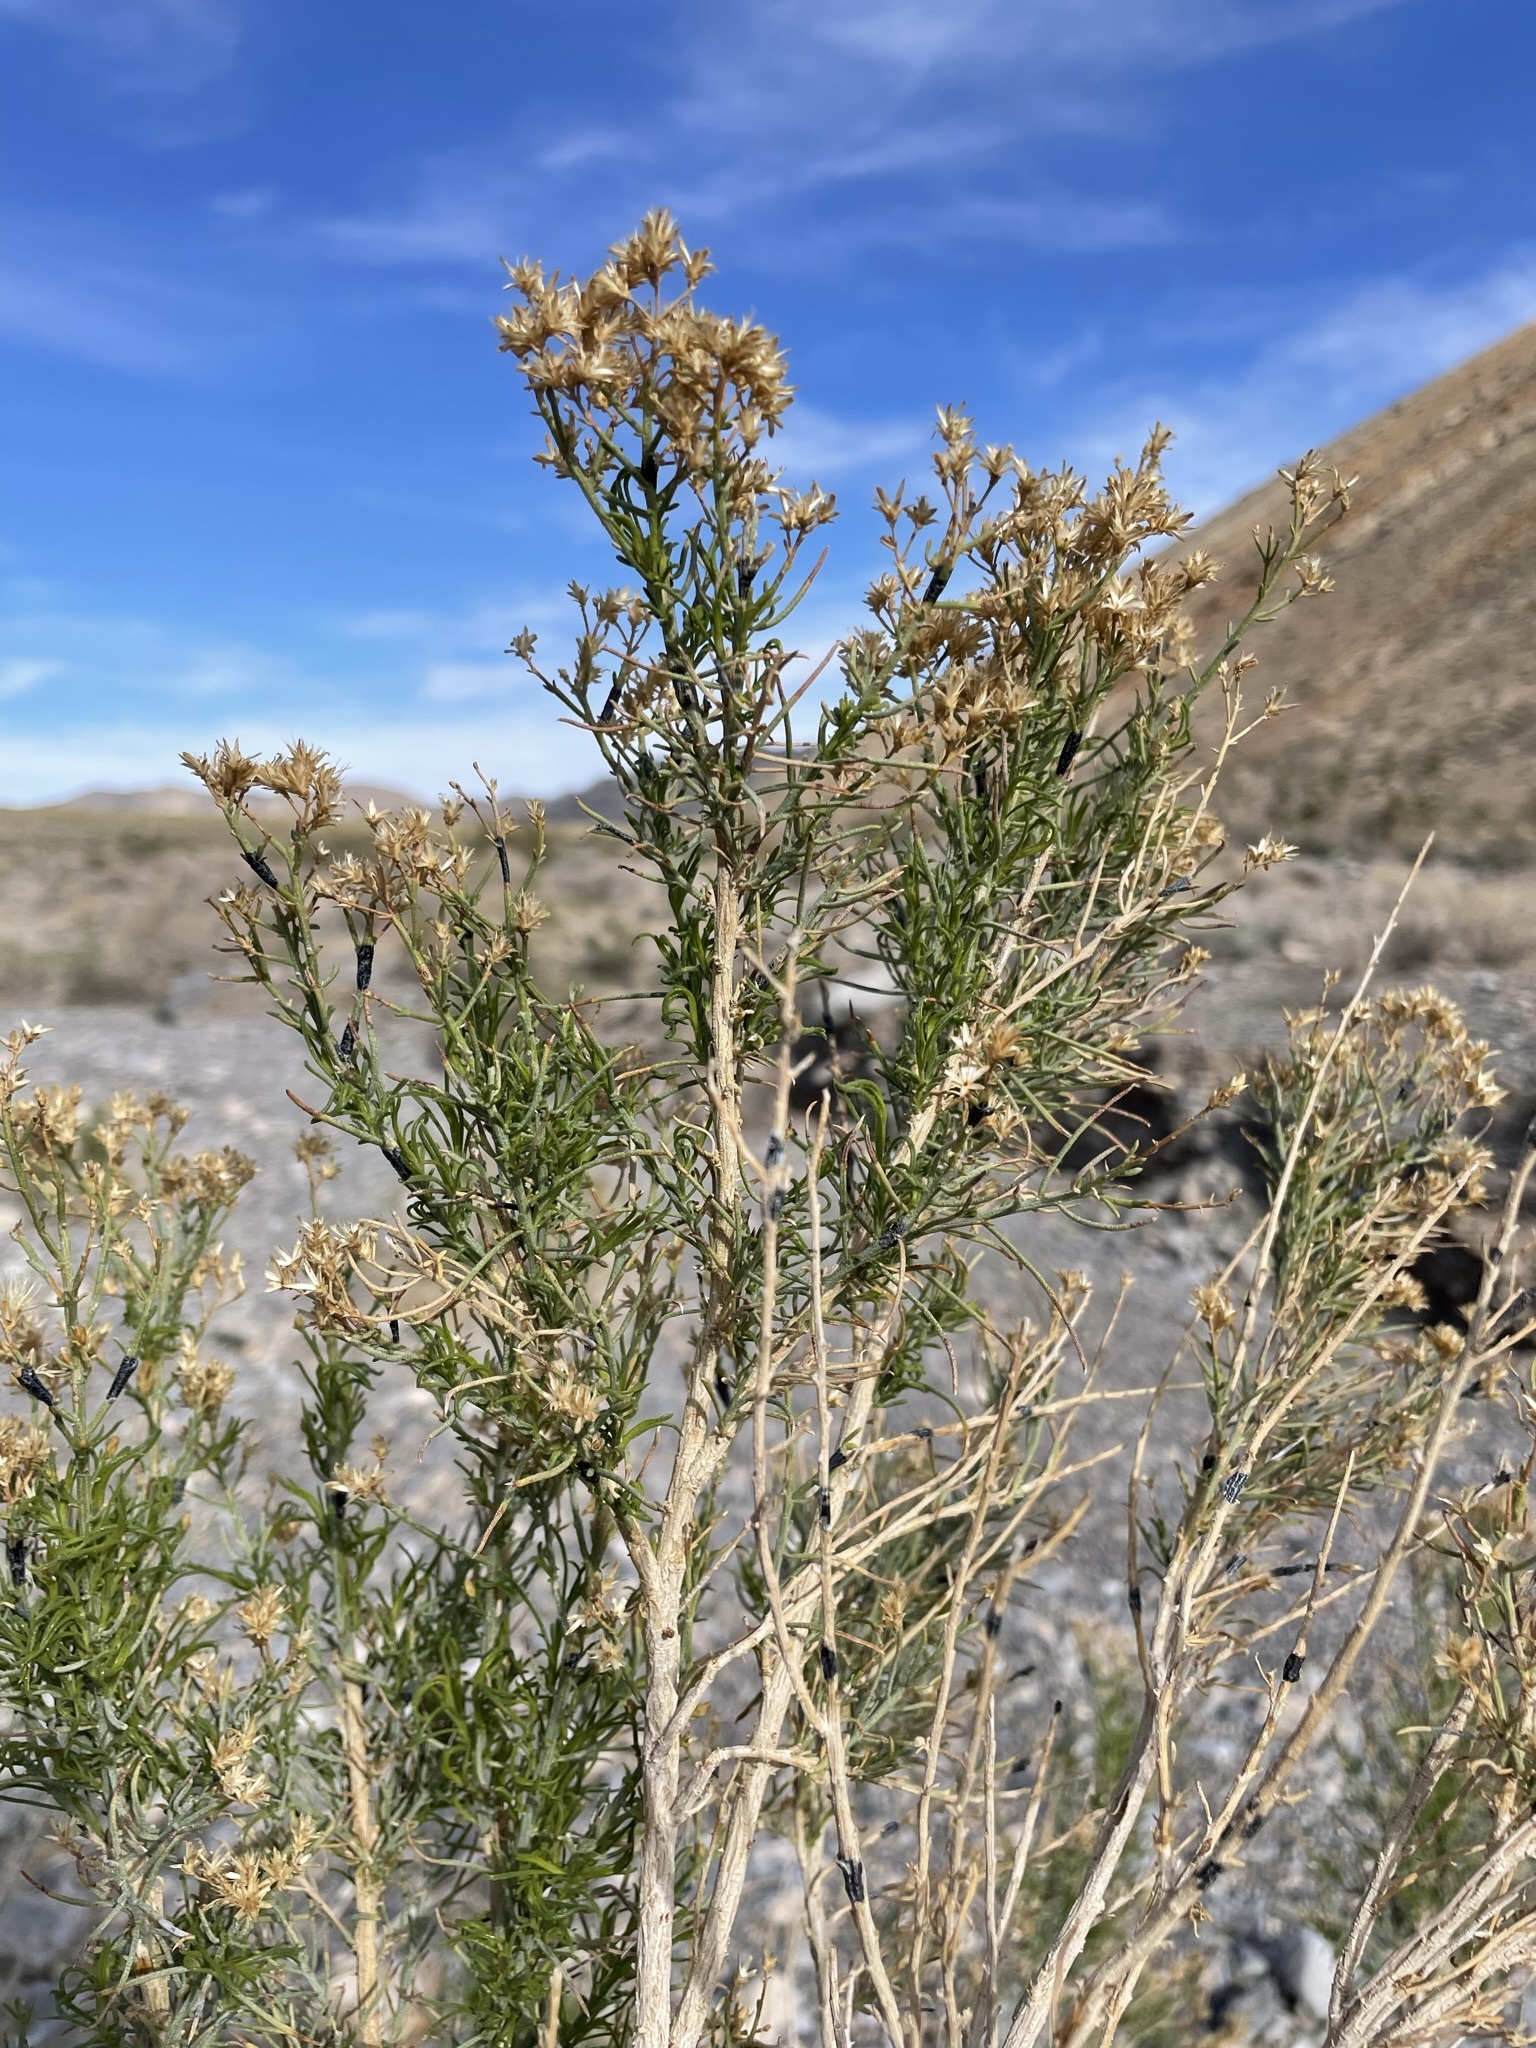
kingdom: Plantae
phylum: Tracheophyta
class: Magnoliopsida
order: Asterales
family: Asteraceae
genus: Ericameria
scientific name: Ericameria paniculata
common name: Punctate rabbitbrush
